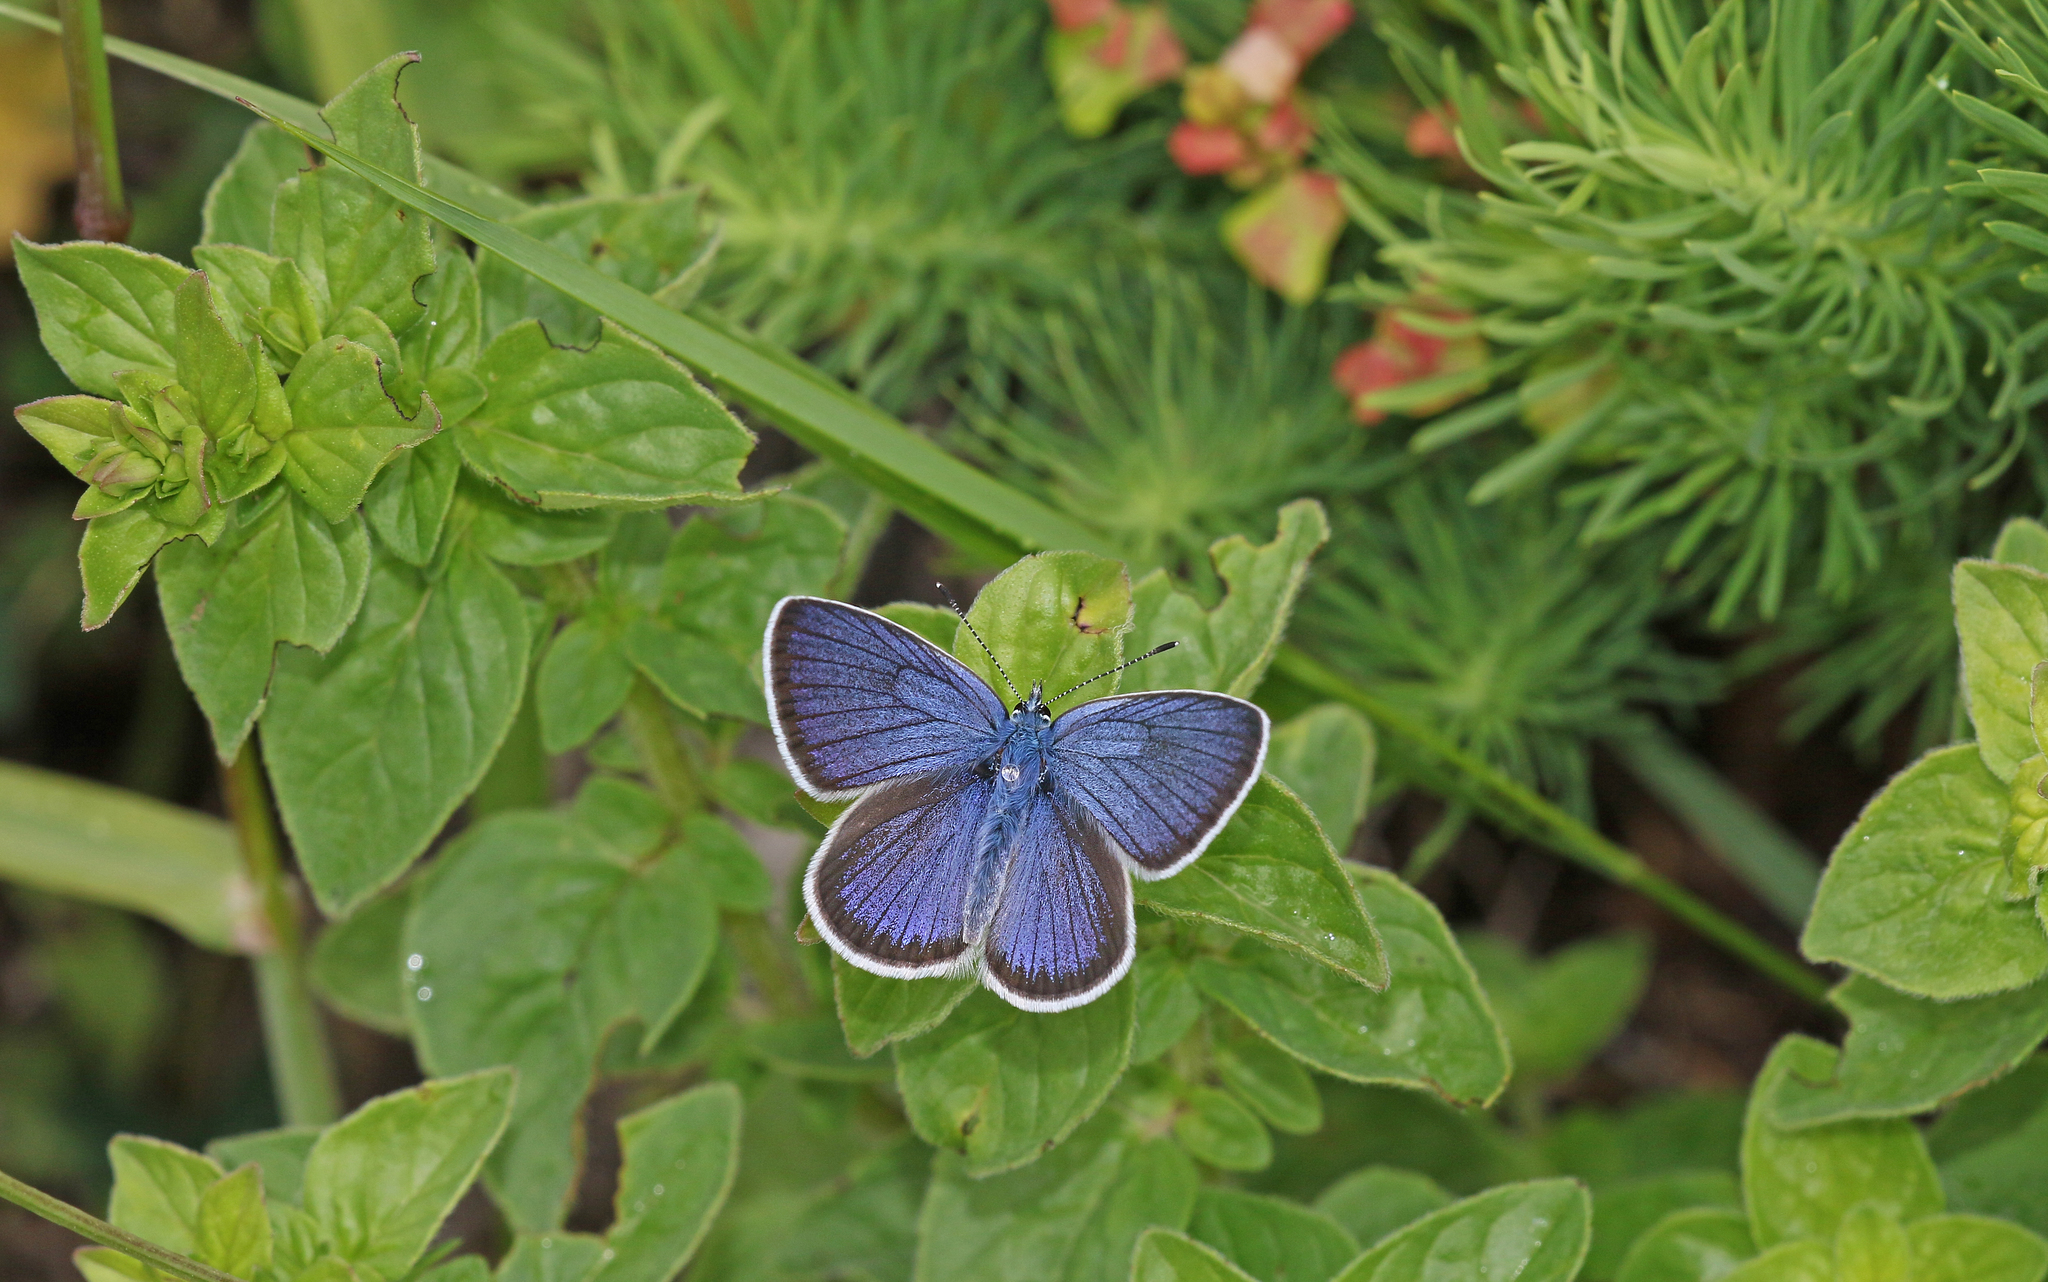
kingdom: Animalia
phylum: Arthropoda
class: Insecta
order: Lepidoptera
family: Lycaenidae
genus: Cyaniris
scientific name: Cyaniris semiargus
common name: Mazarine blue
